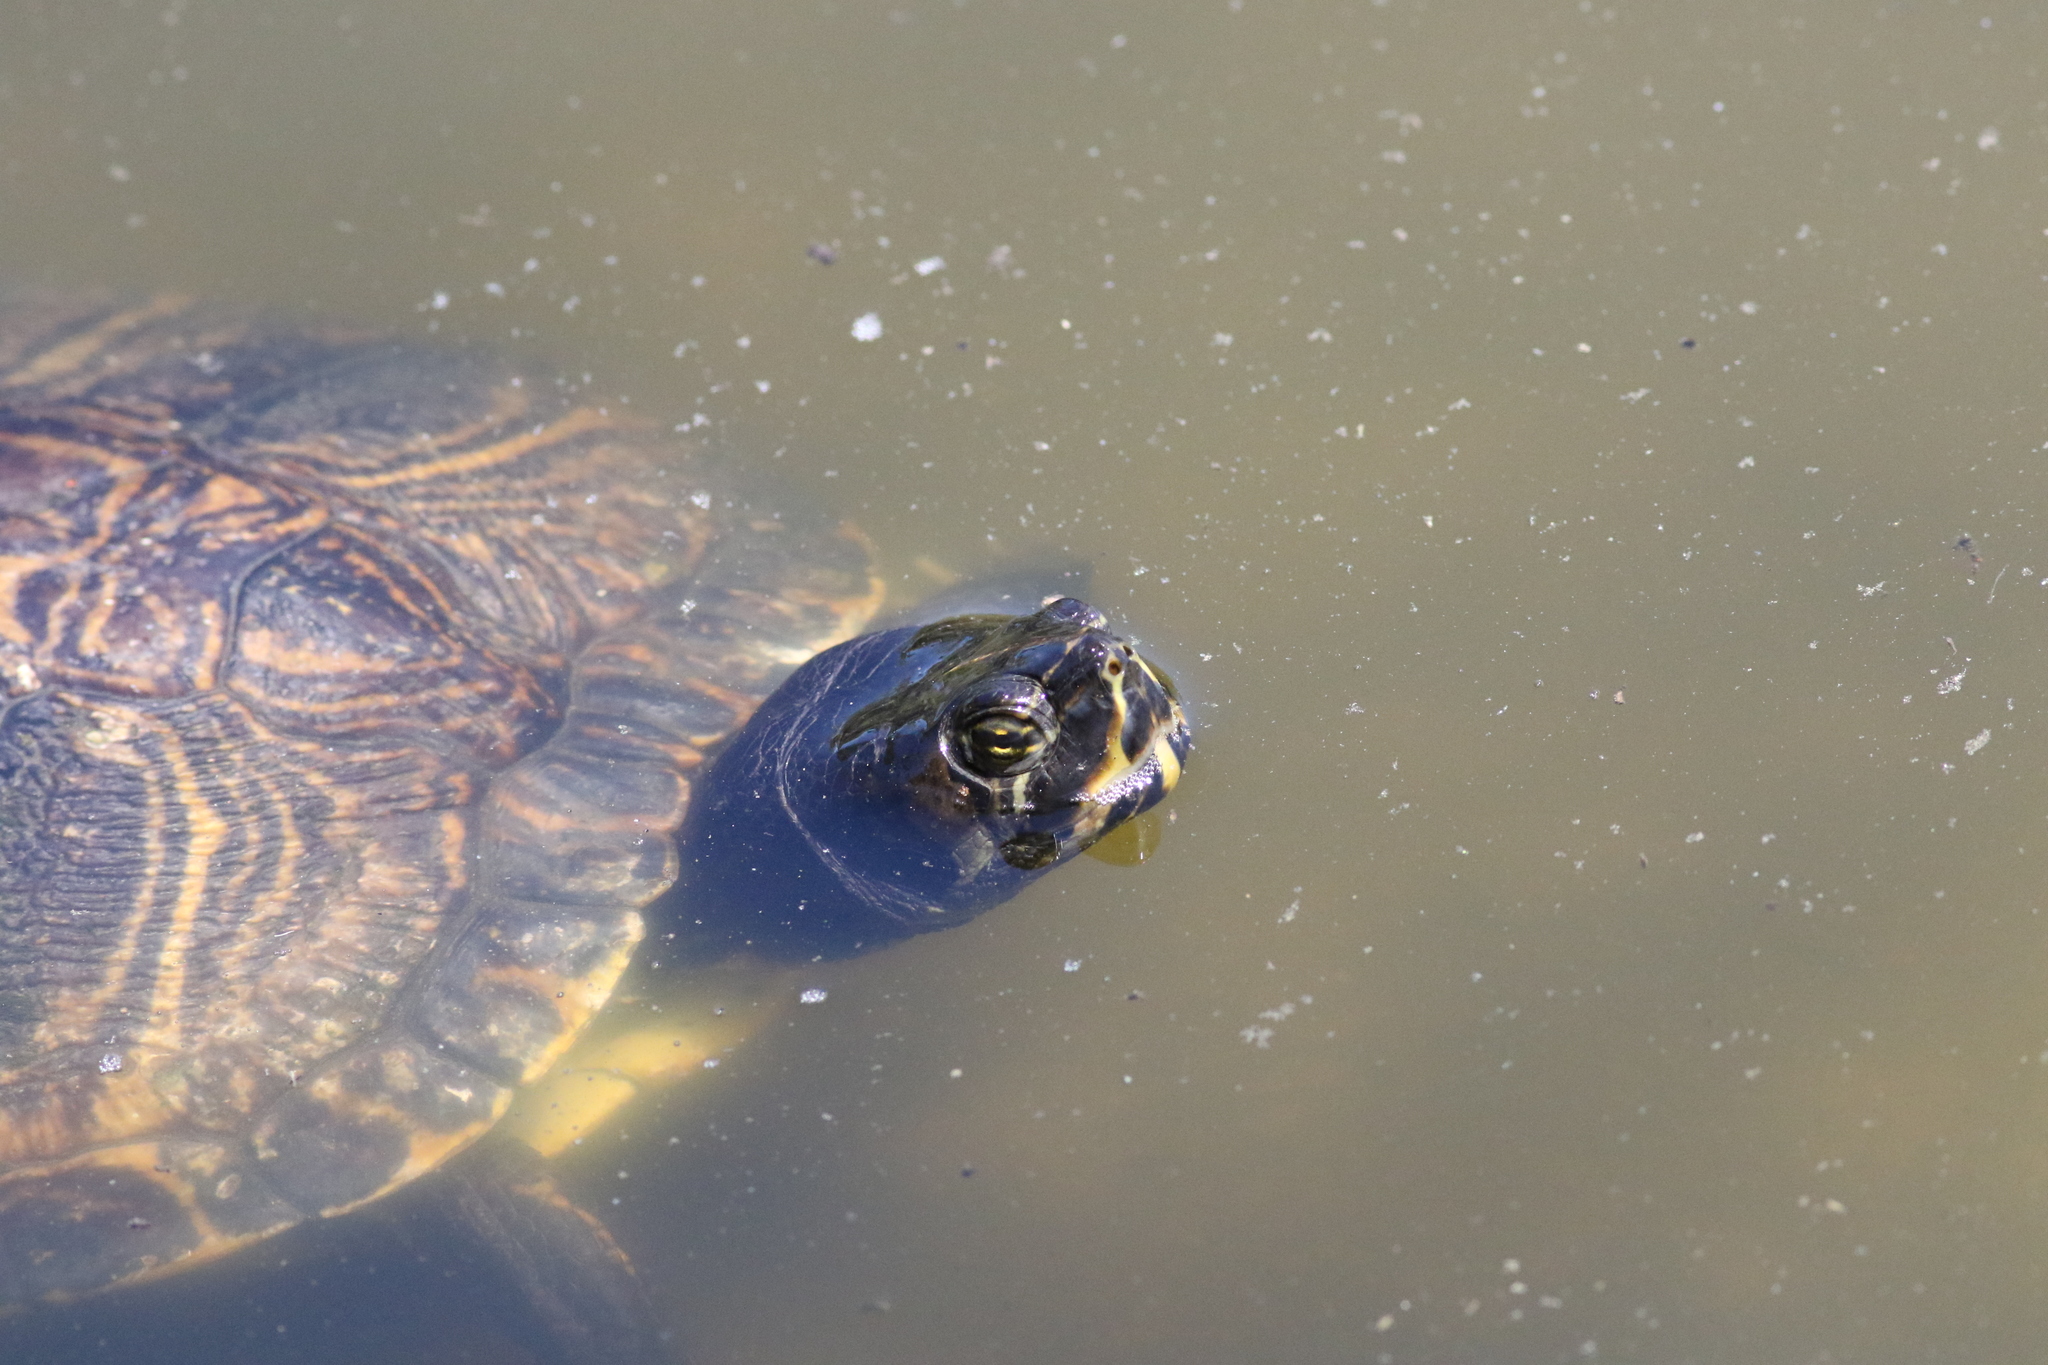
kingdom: Animalia
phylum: Chordata
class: Testudines
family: Emydidae
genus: Trachemys
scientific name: Trachemys scripta
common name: Slider
